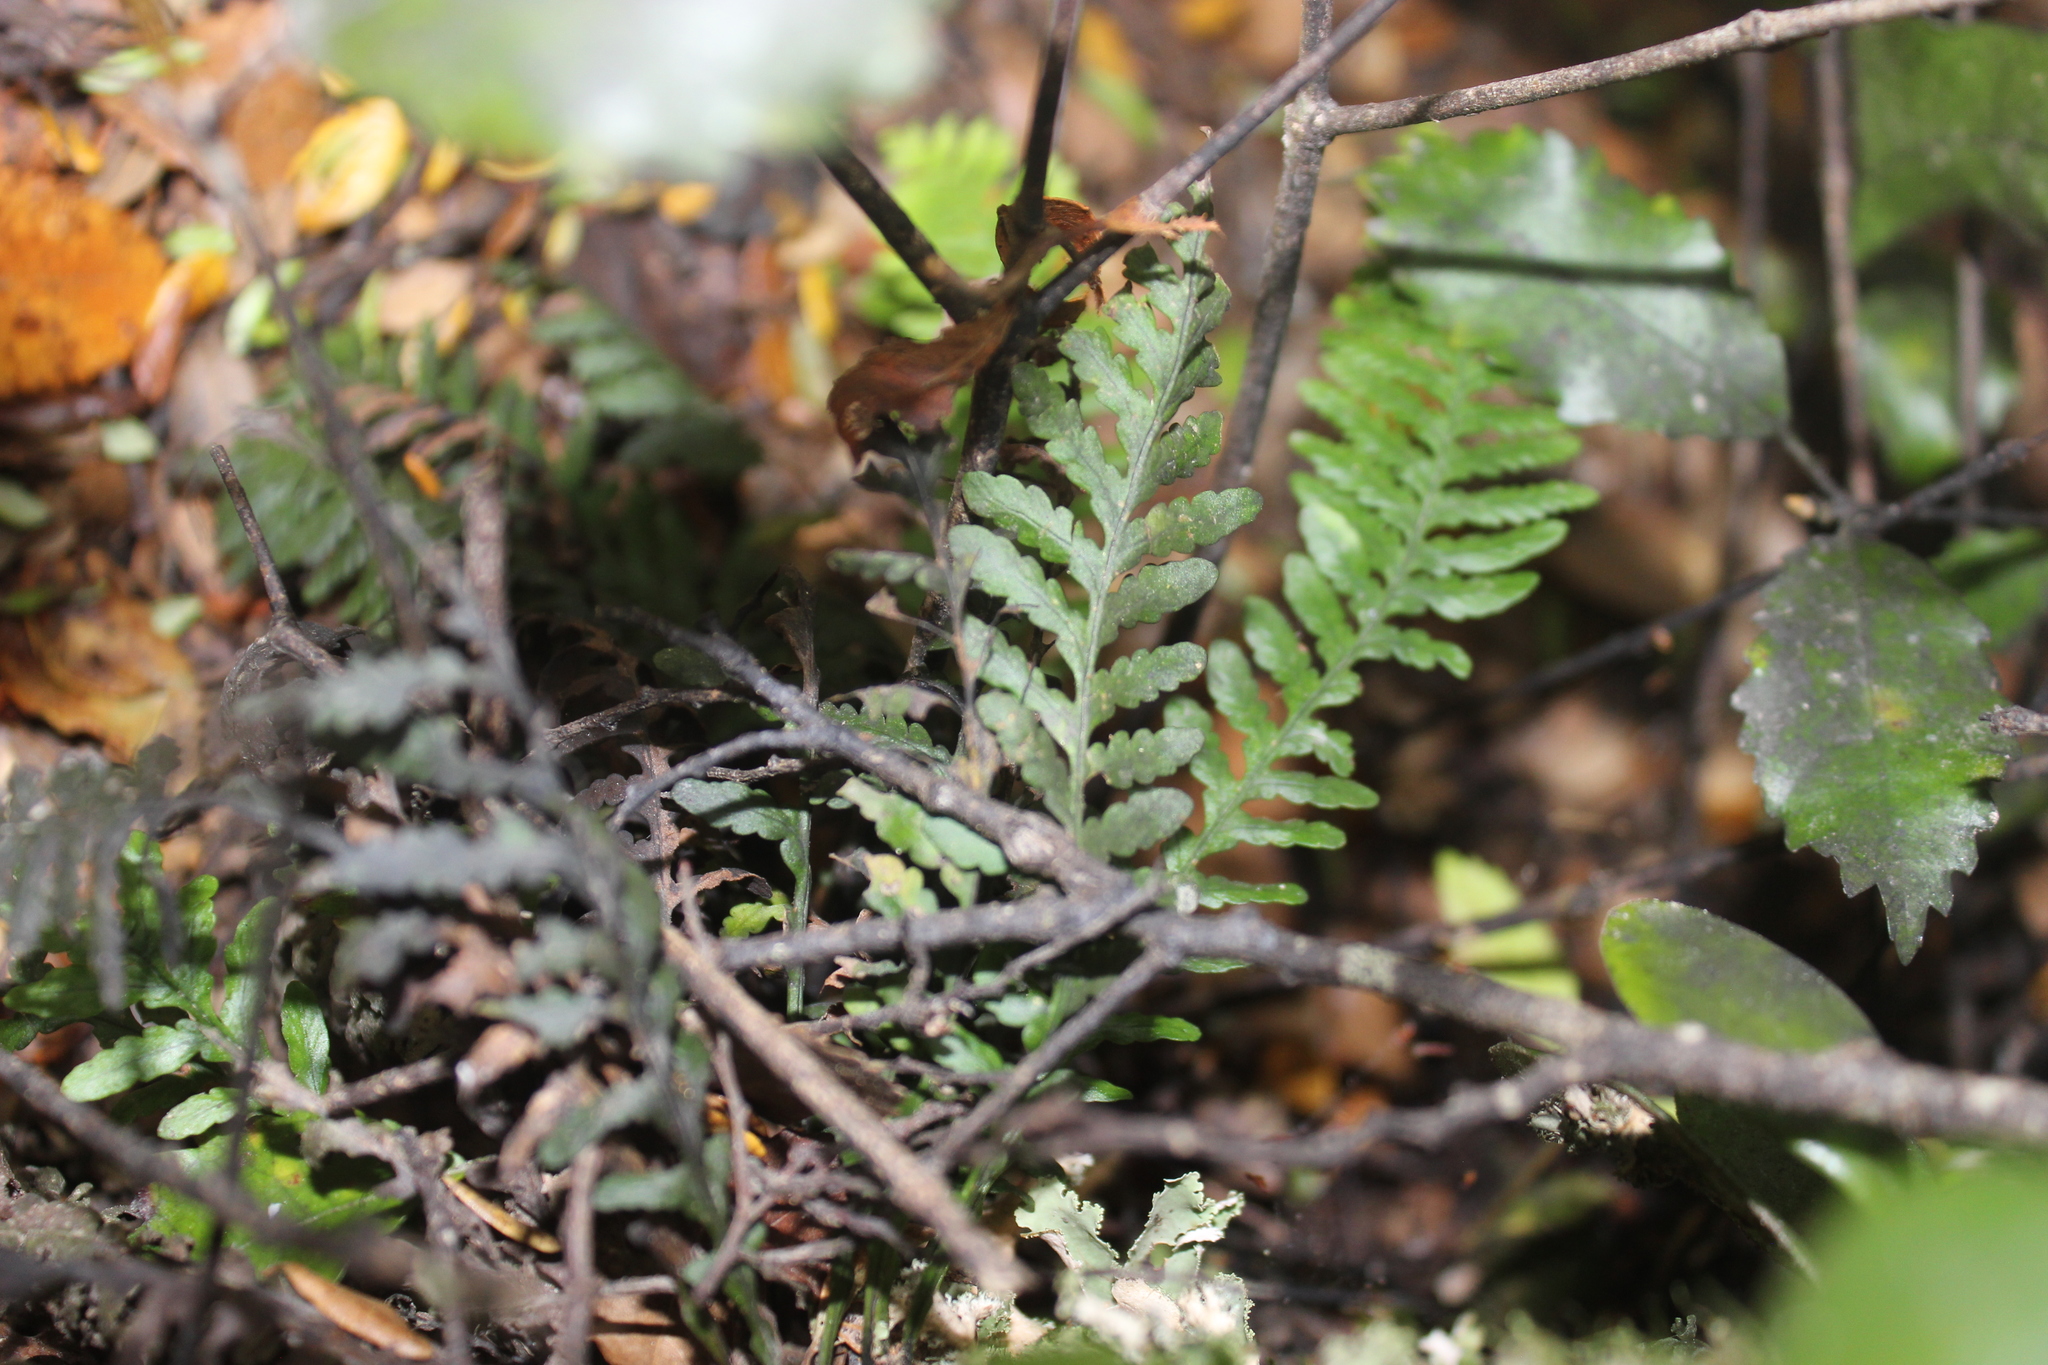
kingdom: Plantae
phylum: Tracheophyta
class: Polypodiopsida
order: Polypodiales
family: Polypodiaceae
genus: Notogrammitis
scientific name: Notogrammitis heterophylla
